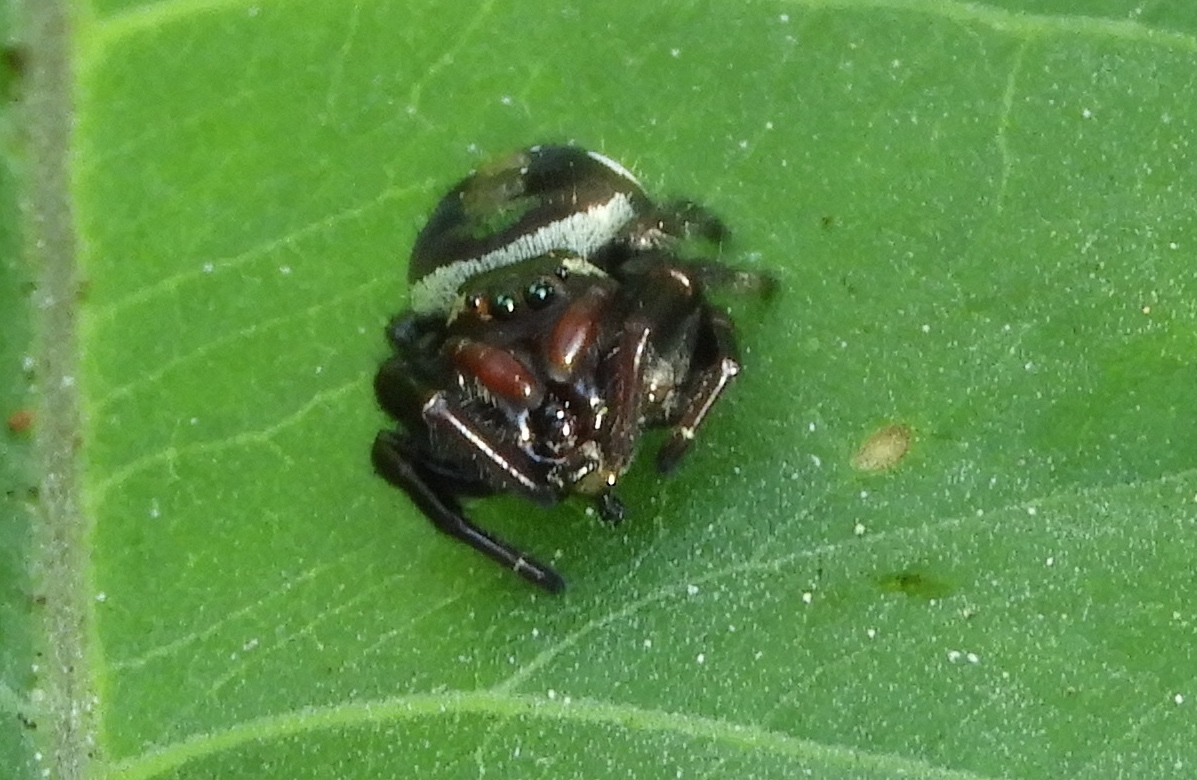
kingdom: Animalia
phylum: Arthropoda
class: Arachnida
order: Araneae
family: Salticidae
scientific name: Salticidae
